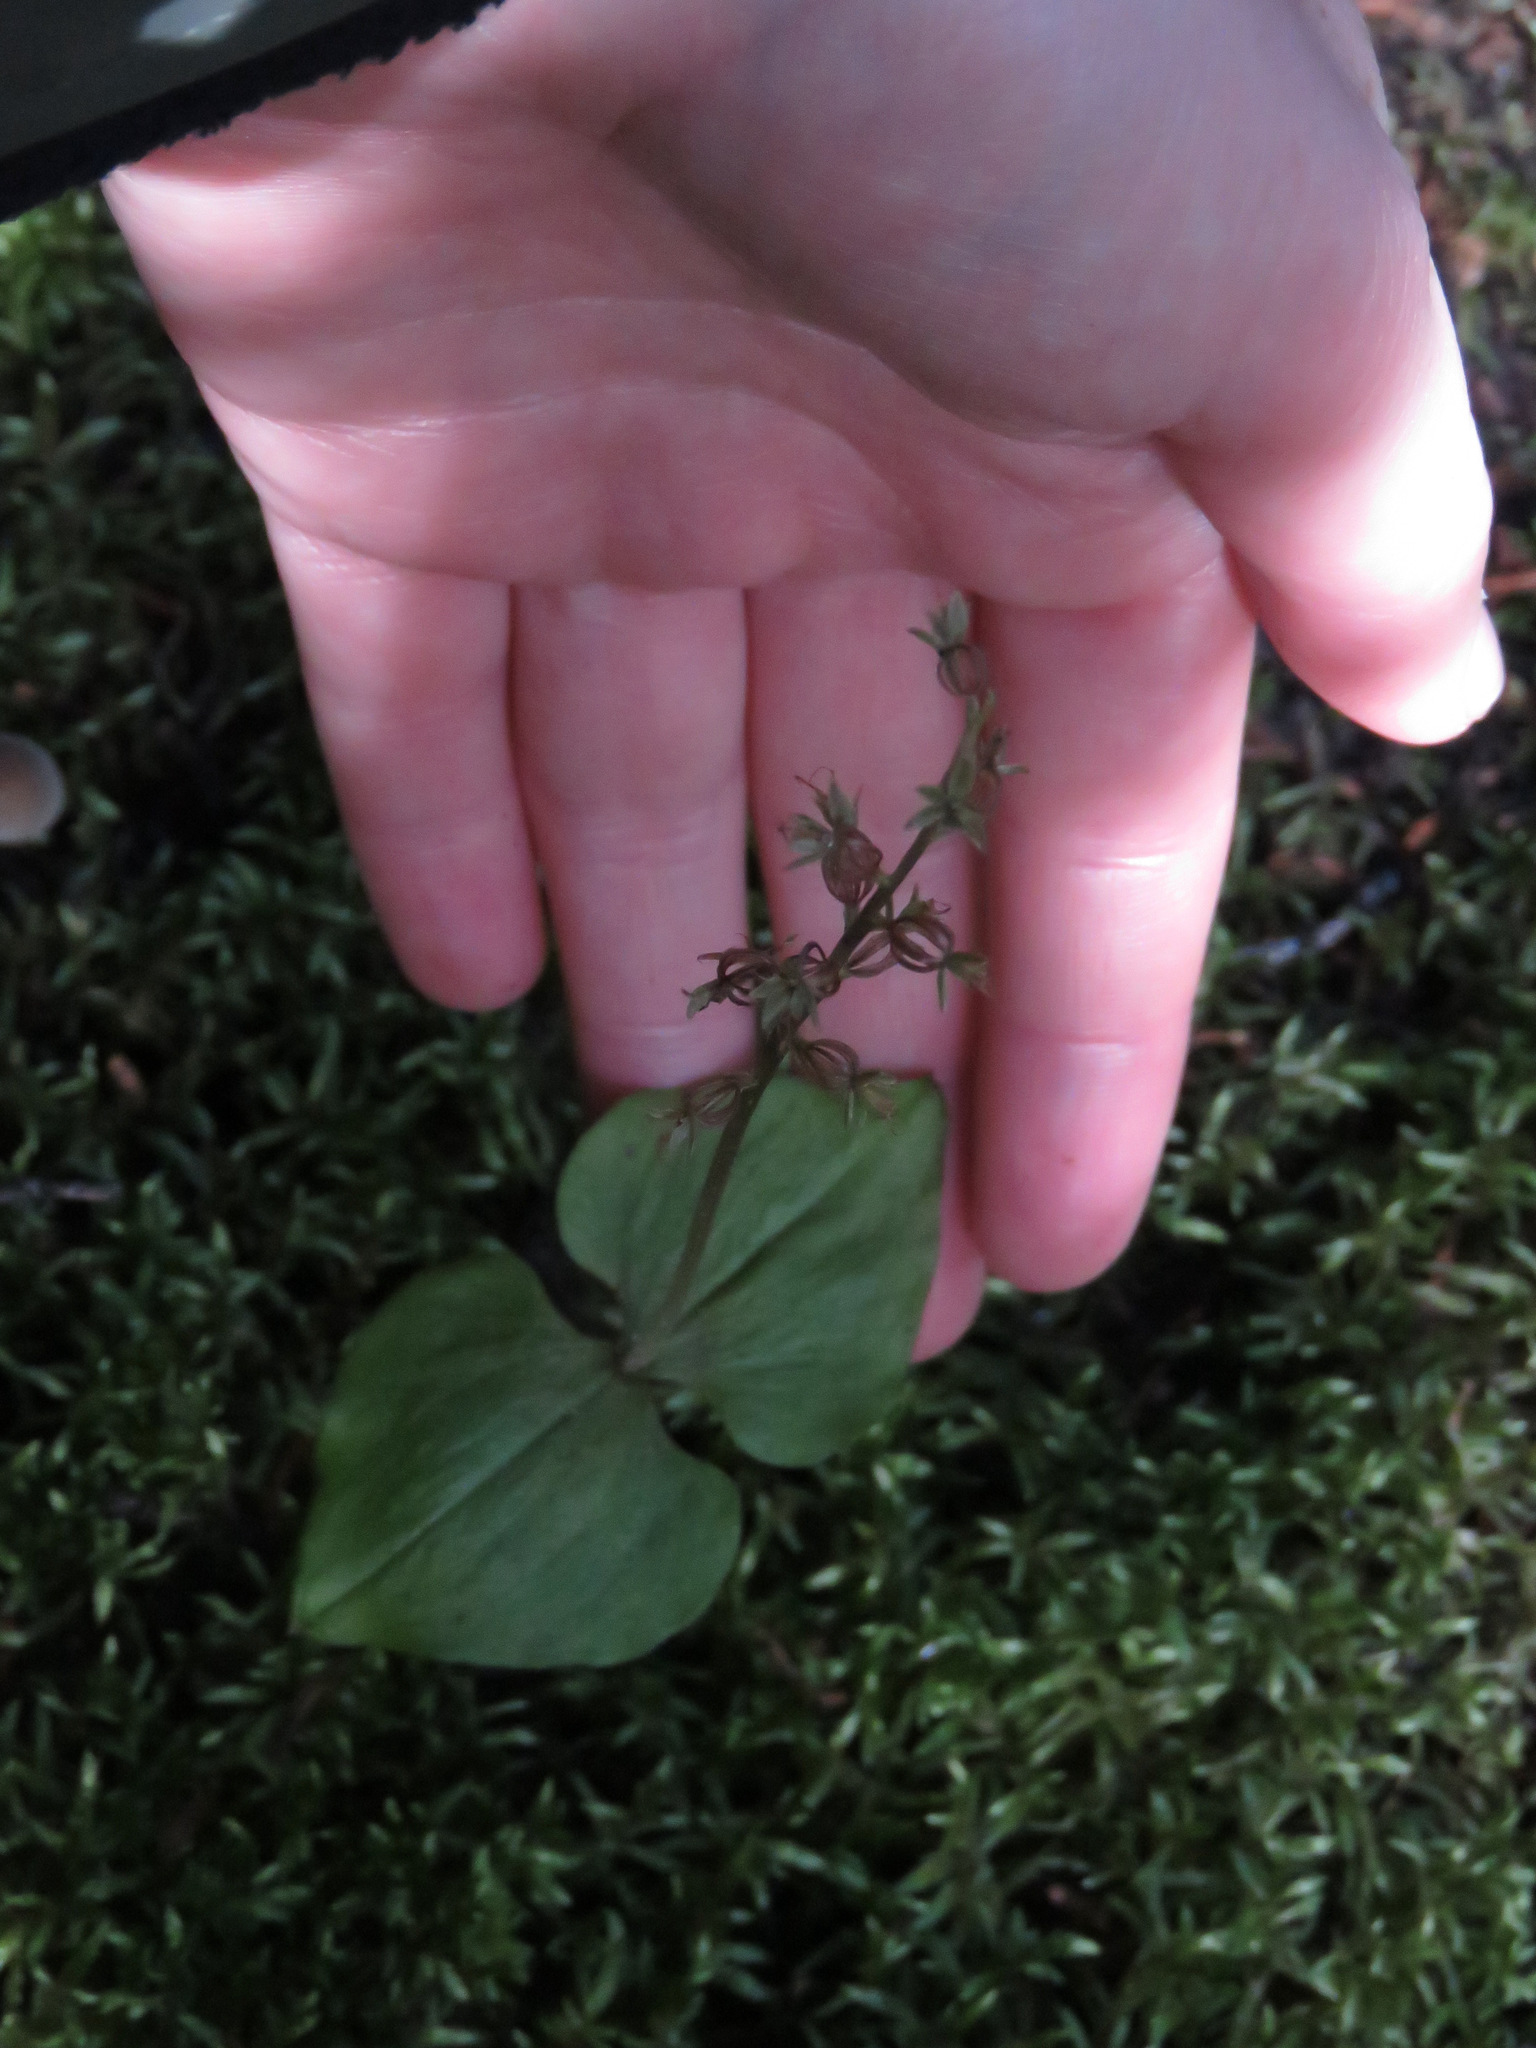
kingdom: Plantae
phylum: Tracheophyta
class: Liliopsida
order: Asparagales
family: Orchidaceae
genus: Neottia
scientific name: Neottia cordata
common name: Lesser twayblade
